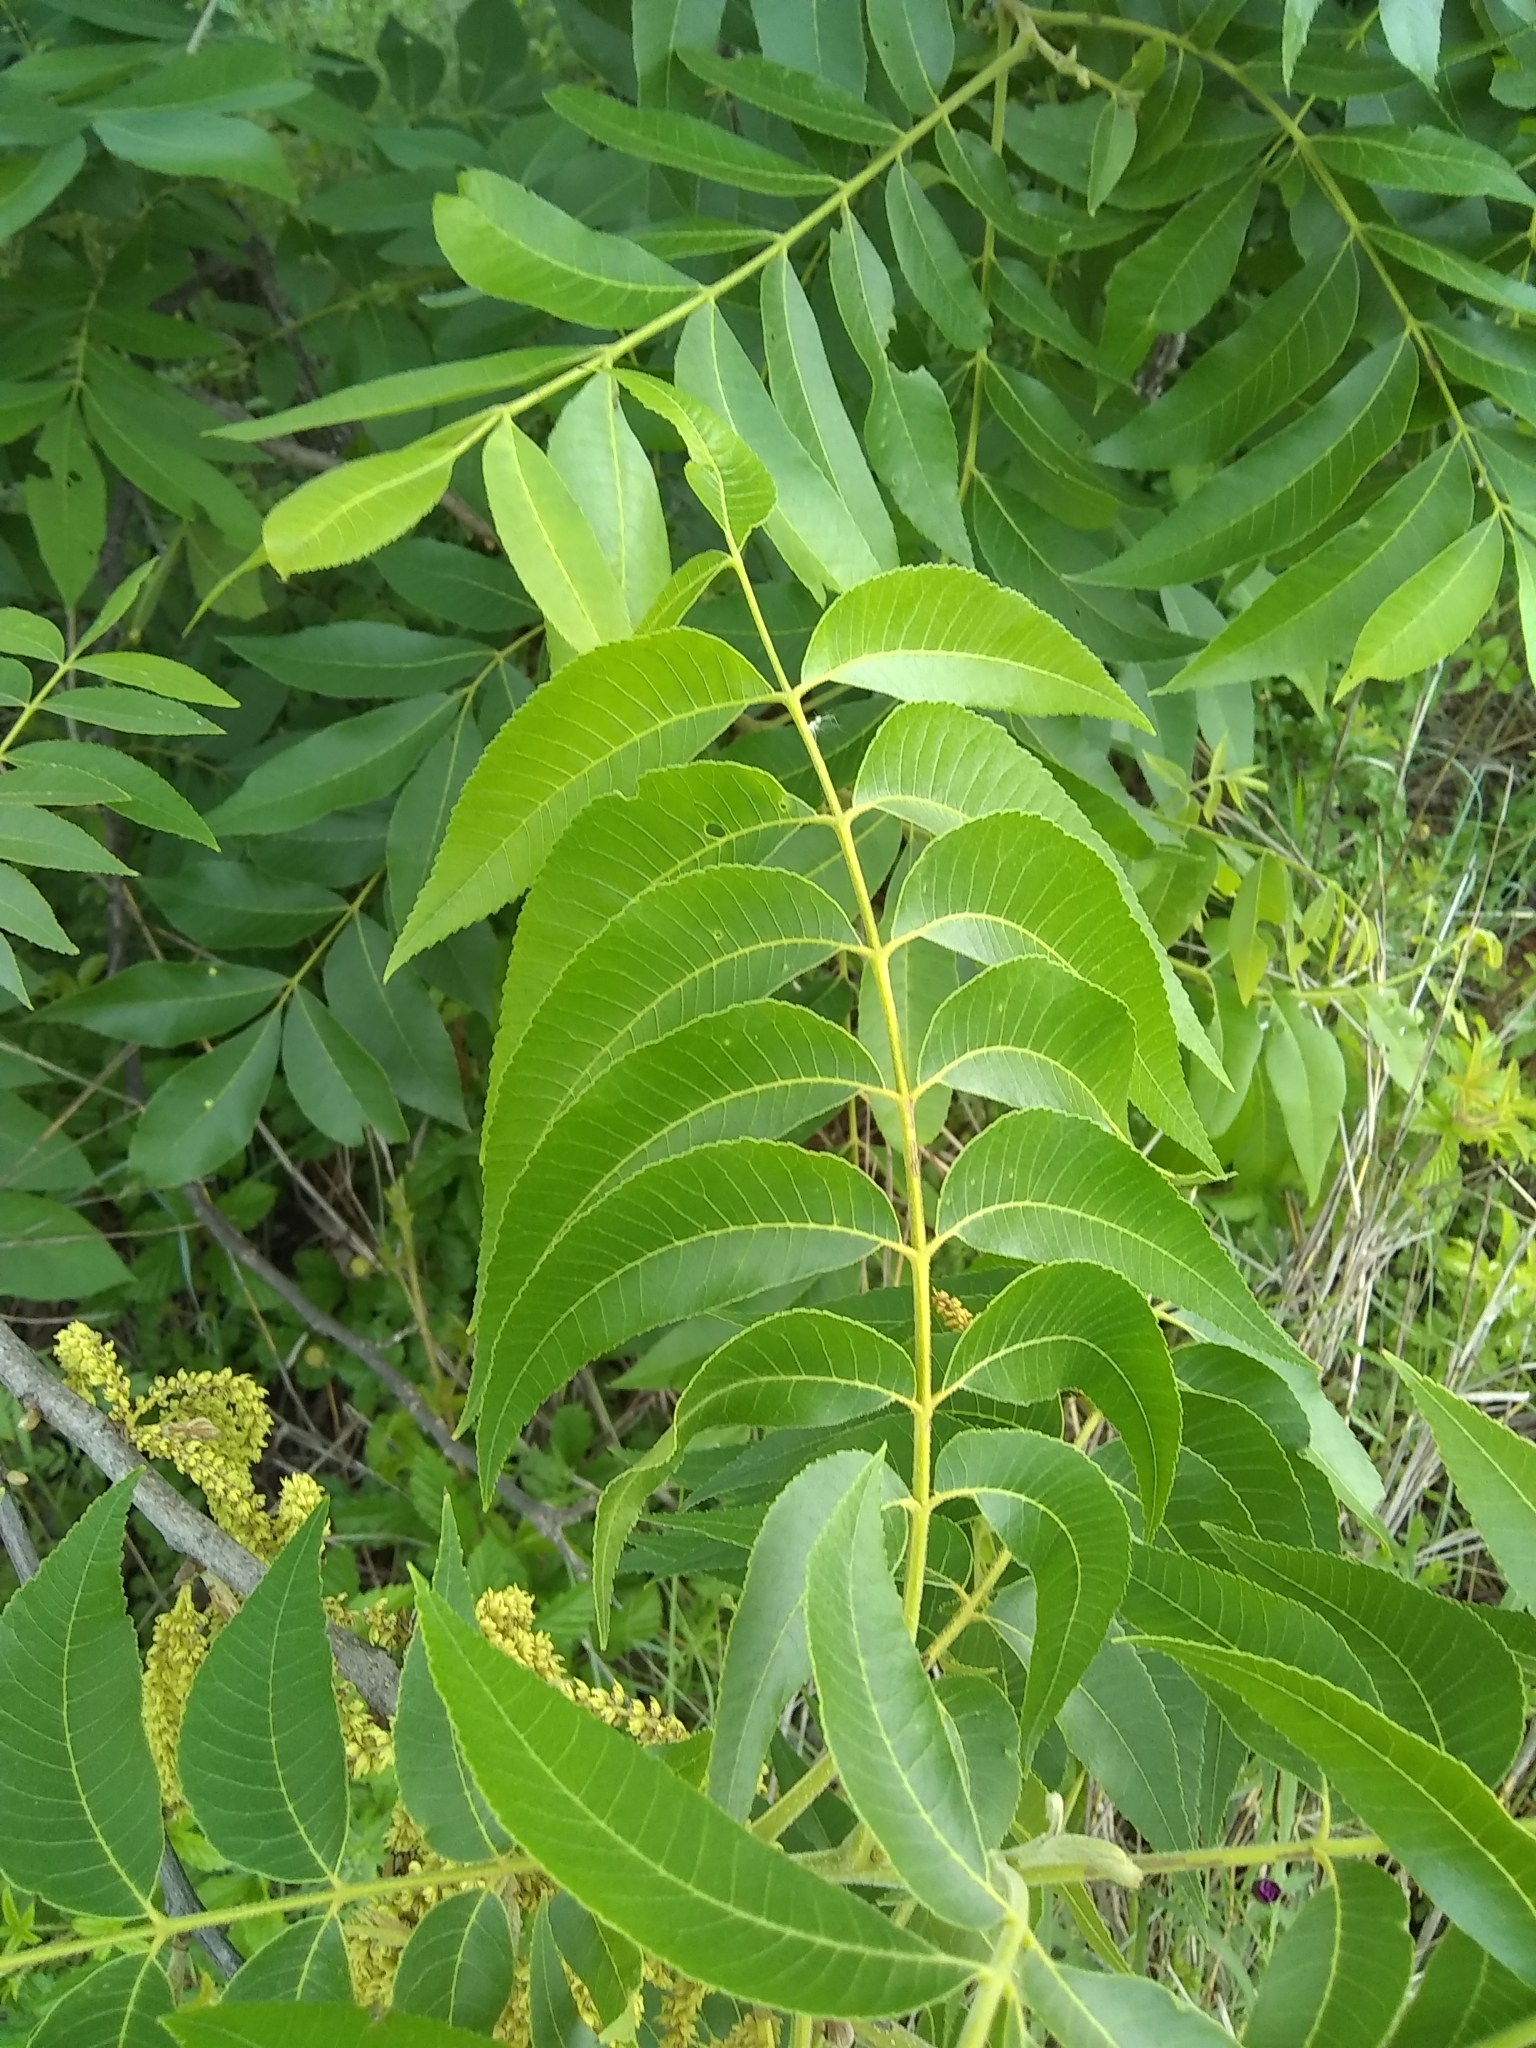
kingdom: Plantae
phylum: Tracheophyta
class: Magnoliopsida
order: Fagales
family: Juglandaceae
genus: Carya
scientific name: Carya illinoinensis
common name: Pecan
